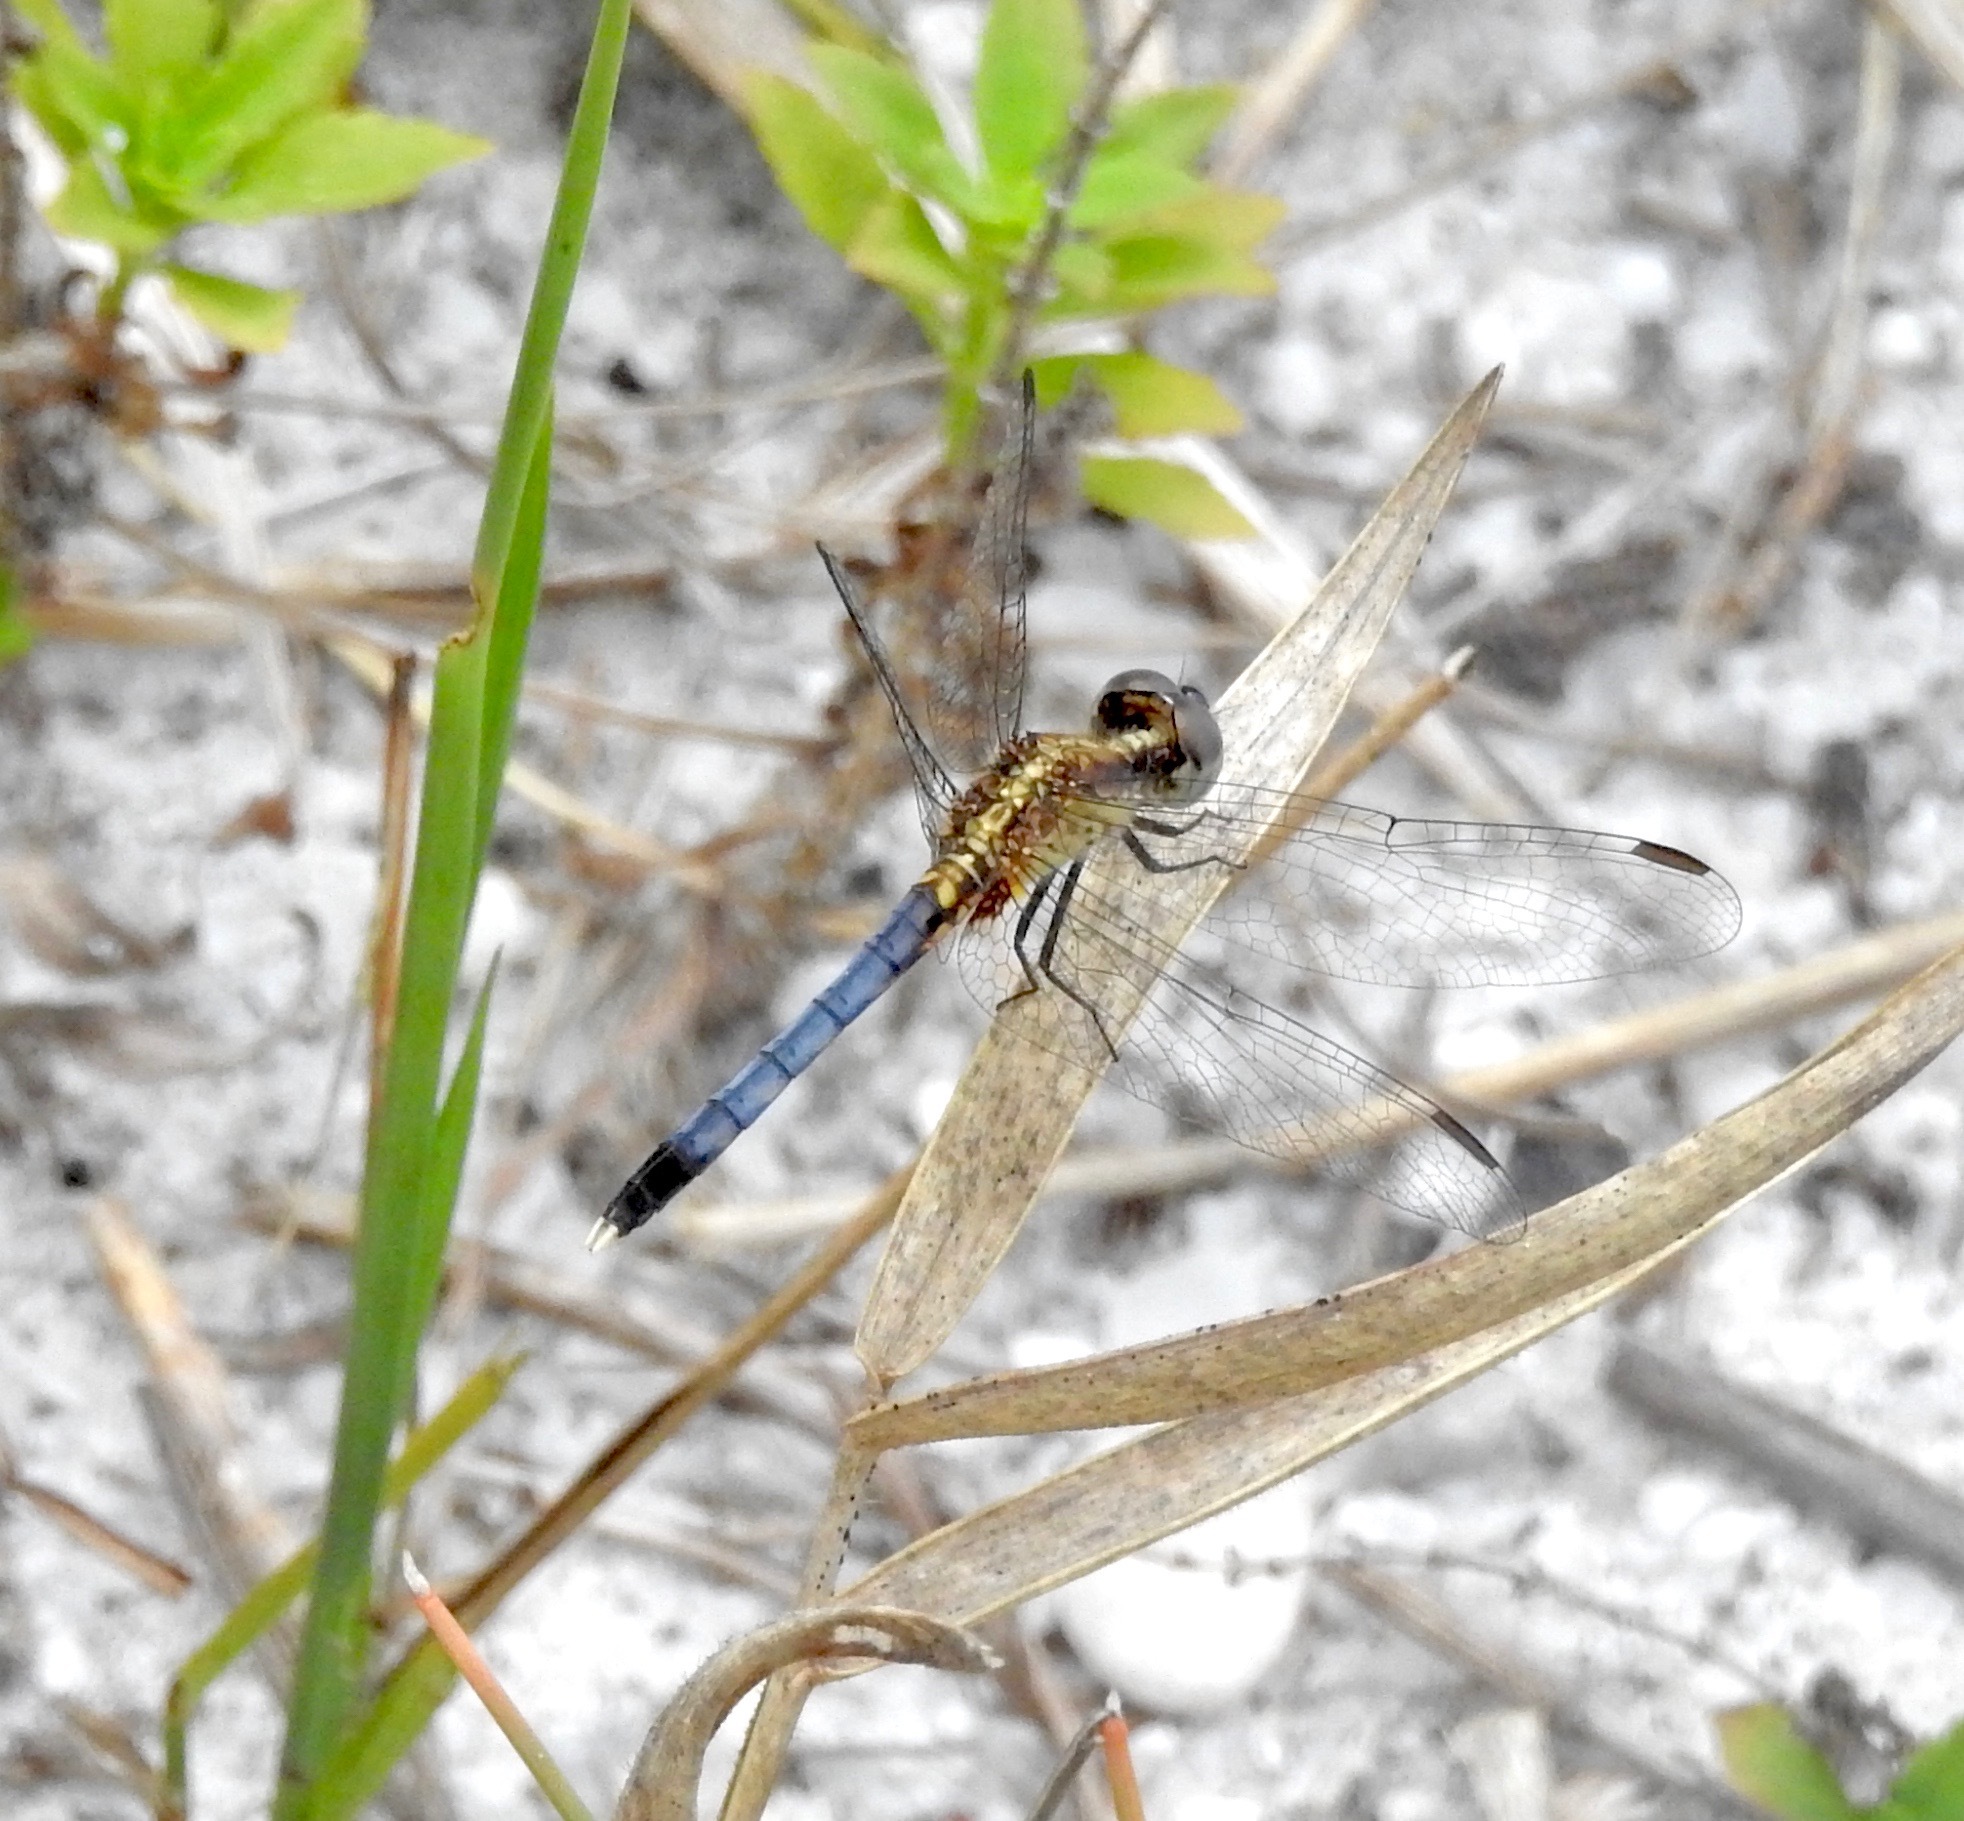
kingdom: Animalia
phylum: Arthropoda
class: Insecta
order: Odonata
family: Libellulidae
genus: Erythrodiplax
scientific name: Erythrodiplax minuscula
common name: Little blue dragonlet
